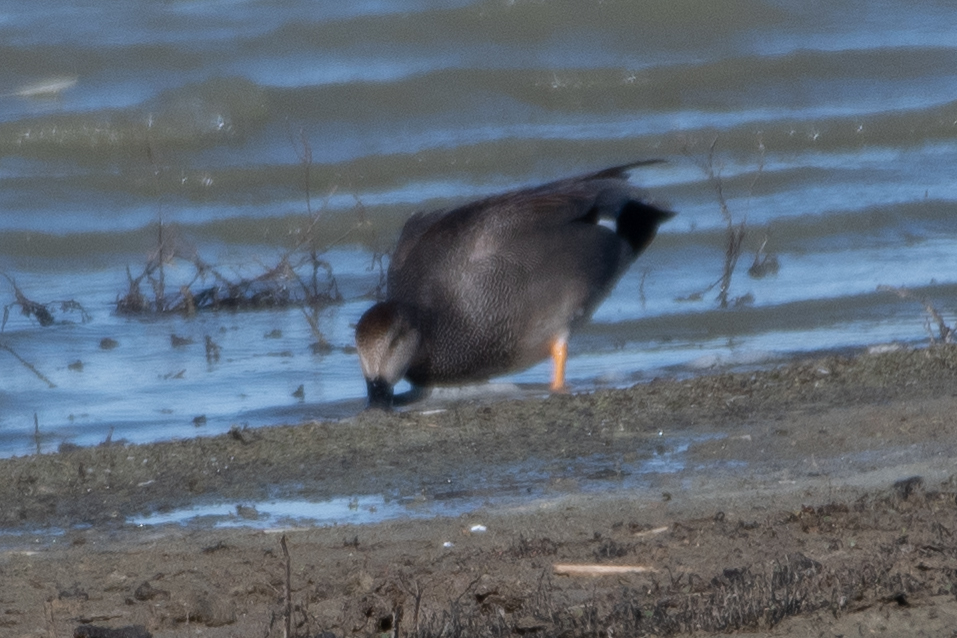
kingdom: Animalia
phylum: Chordata
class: Aves
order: Anseriformes
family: Anatidae
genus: Mareca
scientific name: Mareca strepera
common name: Gadwall
